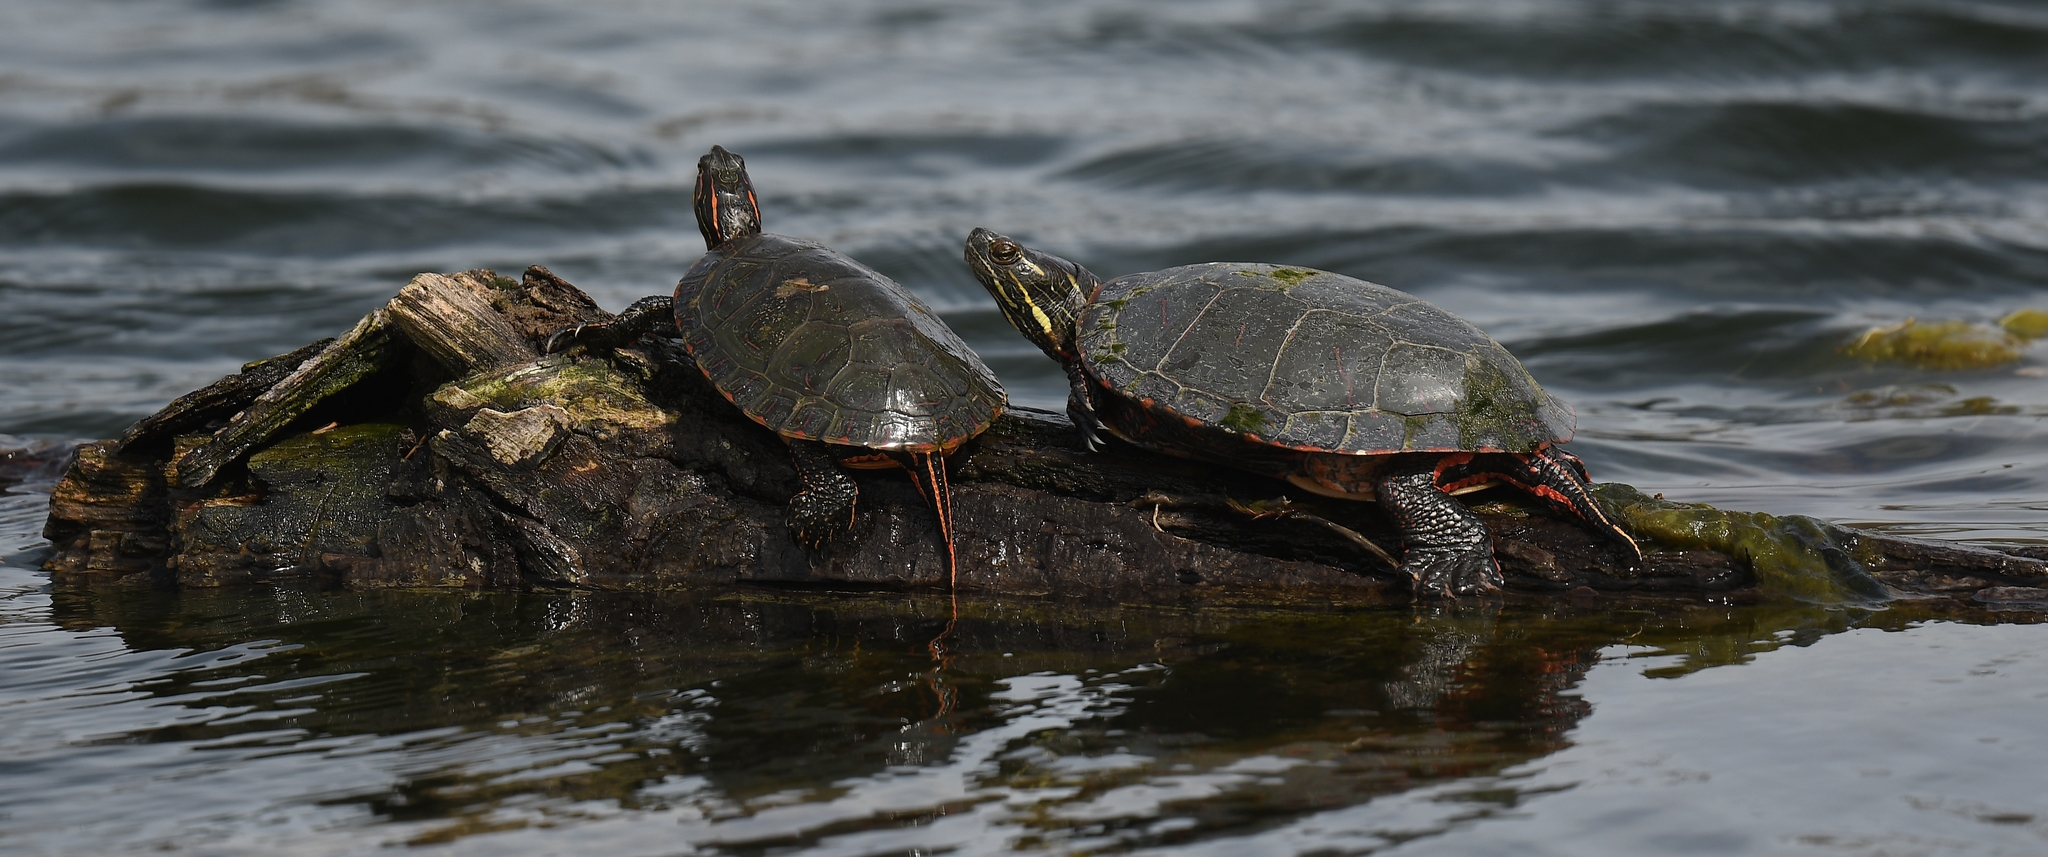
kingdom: Animalia
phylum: Chordata
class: Testudines
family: Emydidae
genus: Chrysemys
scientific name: Chrysemys picta
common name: Painted turtle
